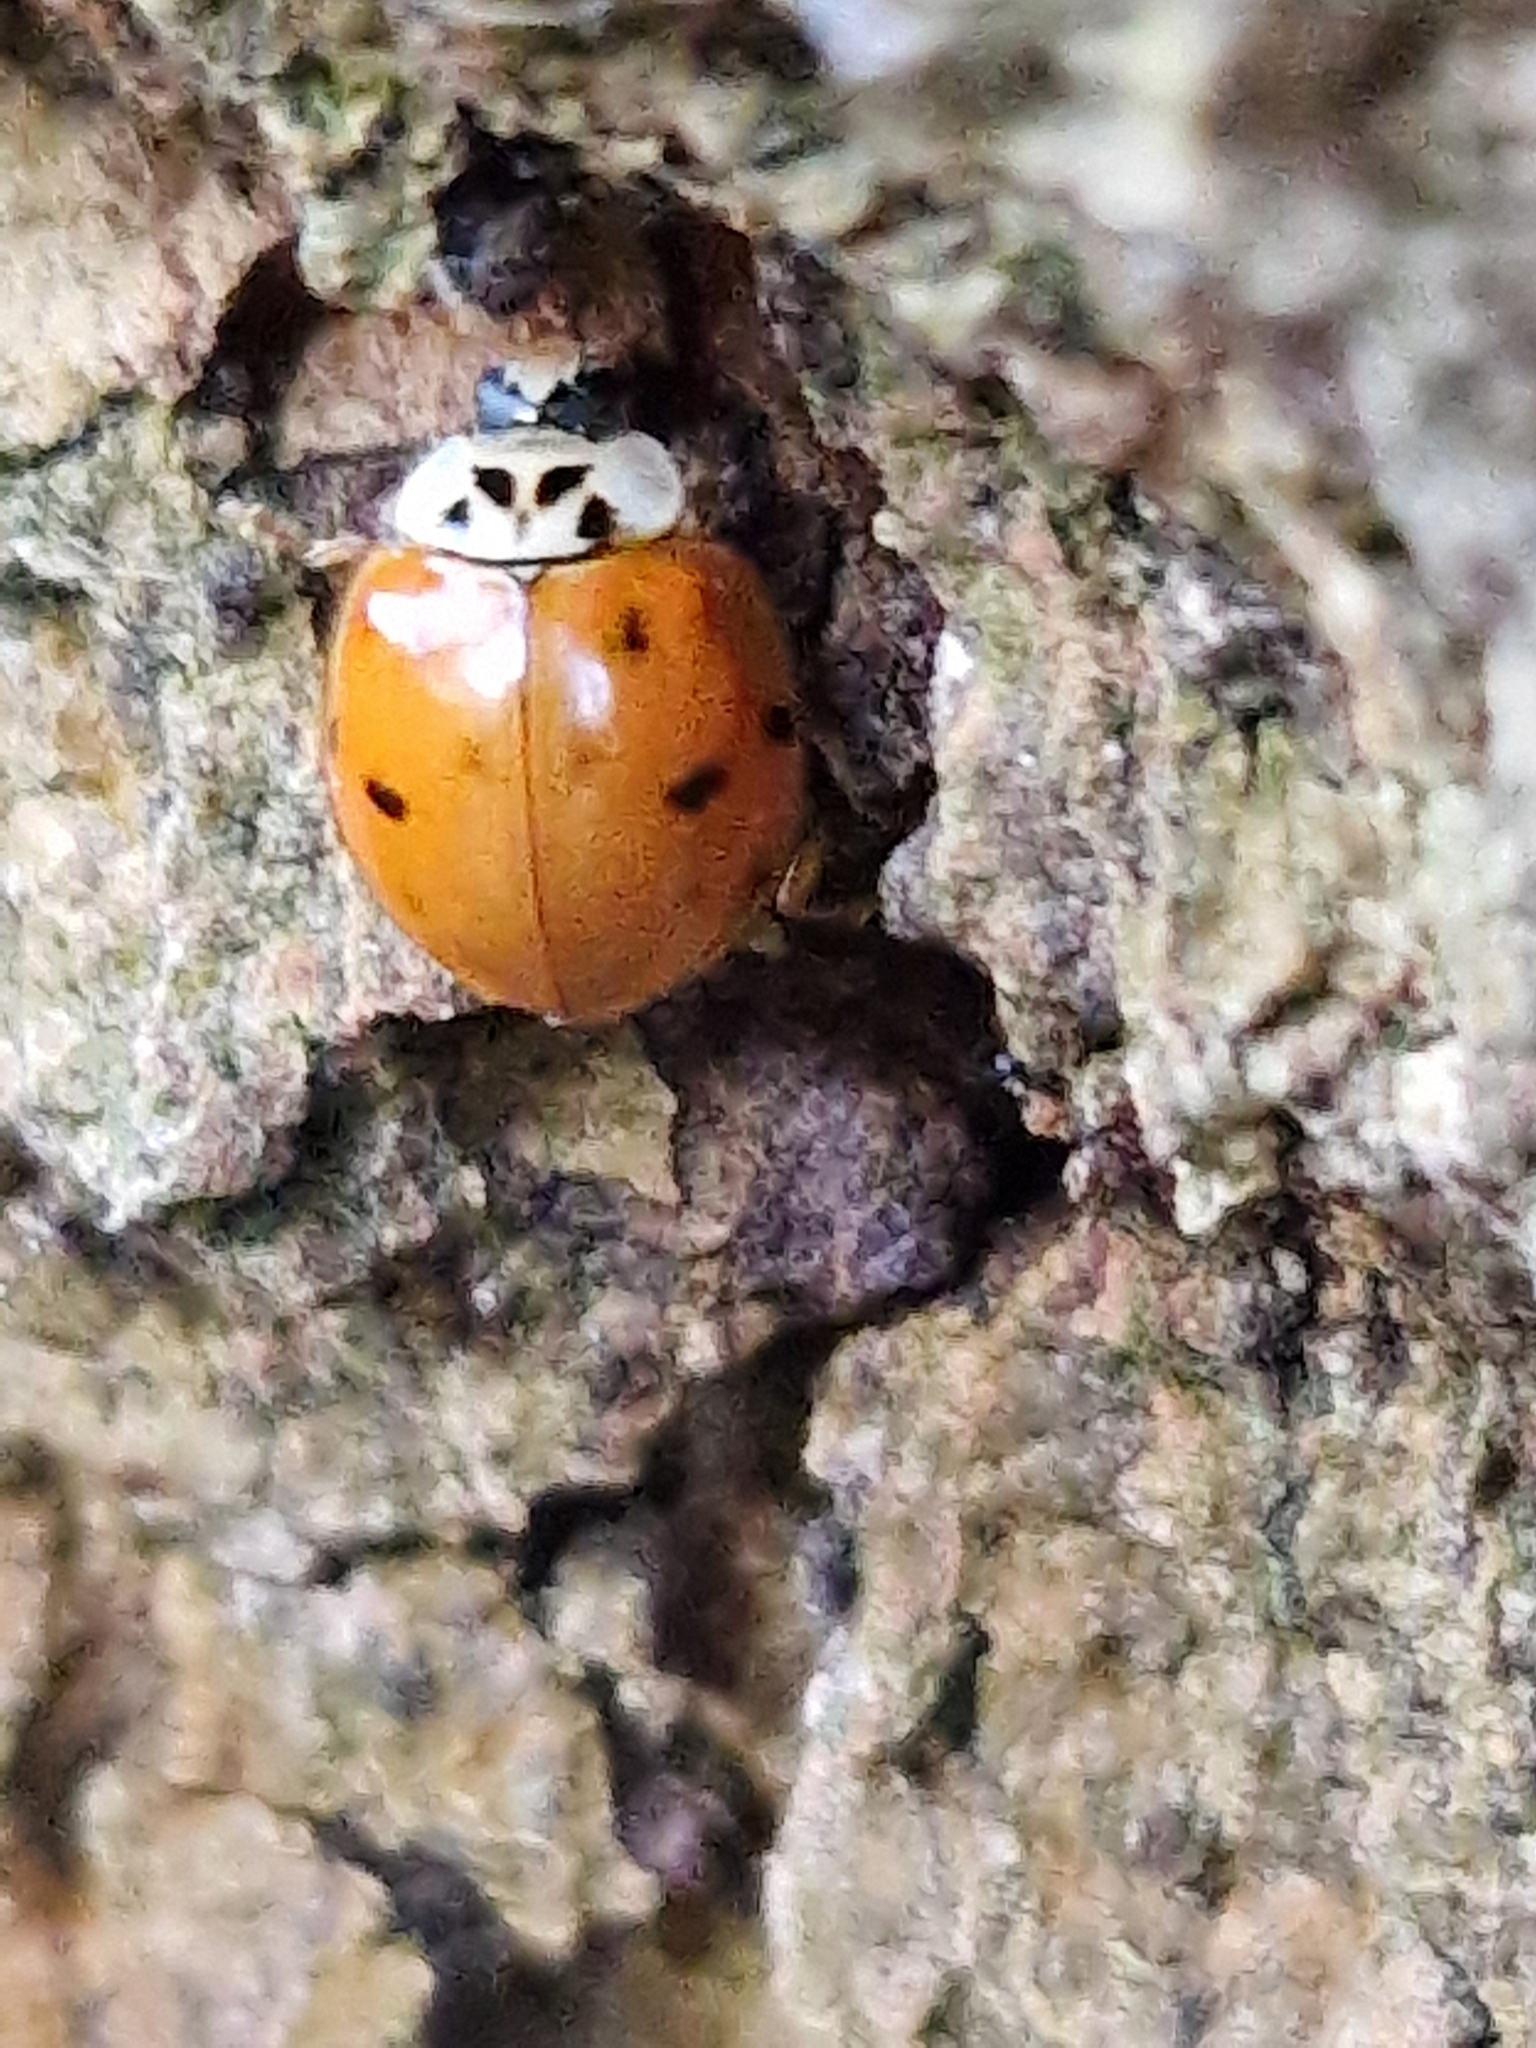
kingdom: Animalia
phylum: Arthropoda
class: Insecta
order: Coleoptera
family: Coccinellidae
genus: Harmonia
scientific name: Harmonia axyridis
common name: Harlequin ladybird
